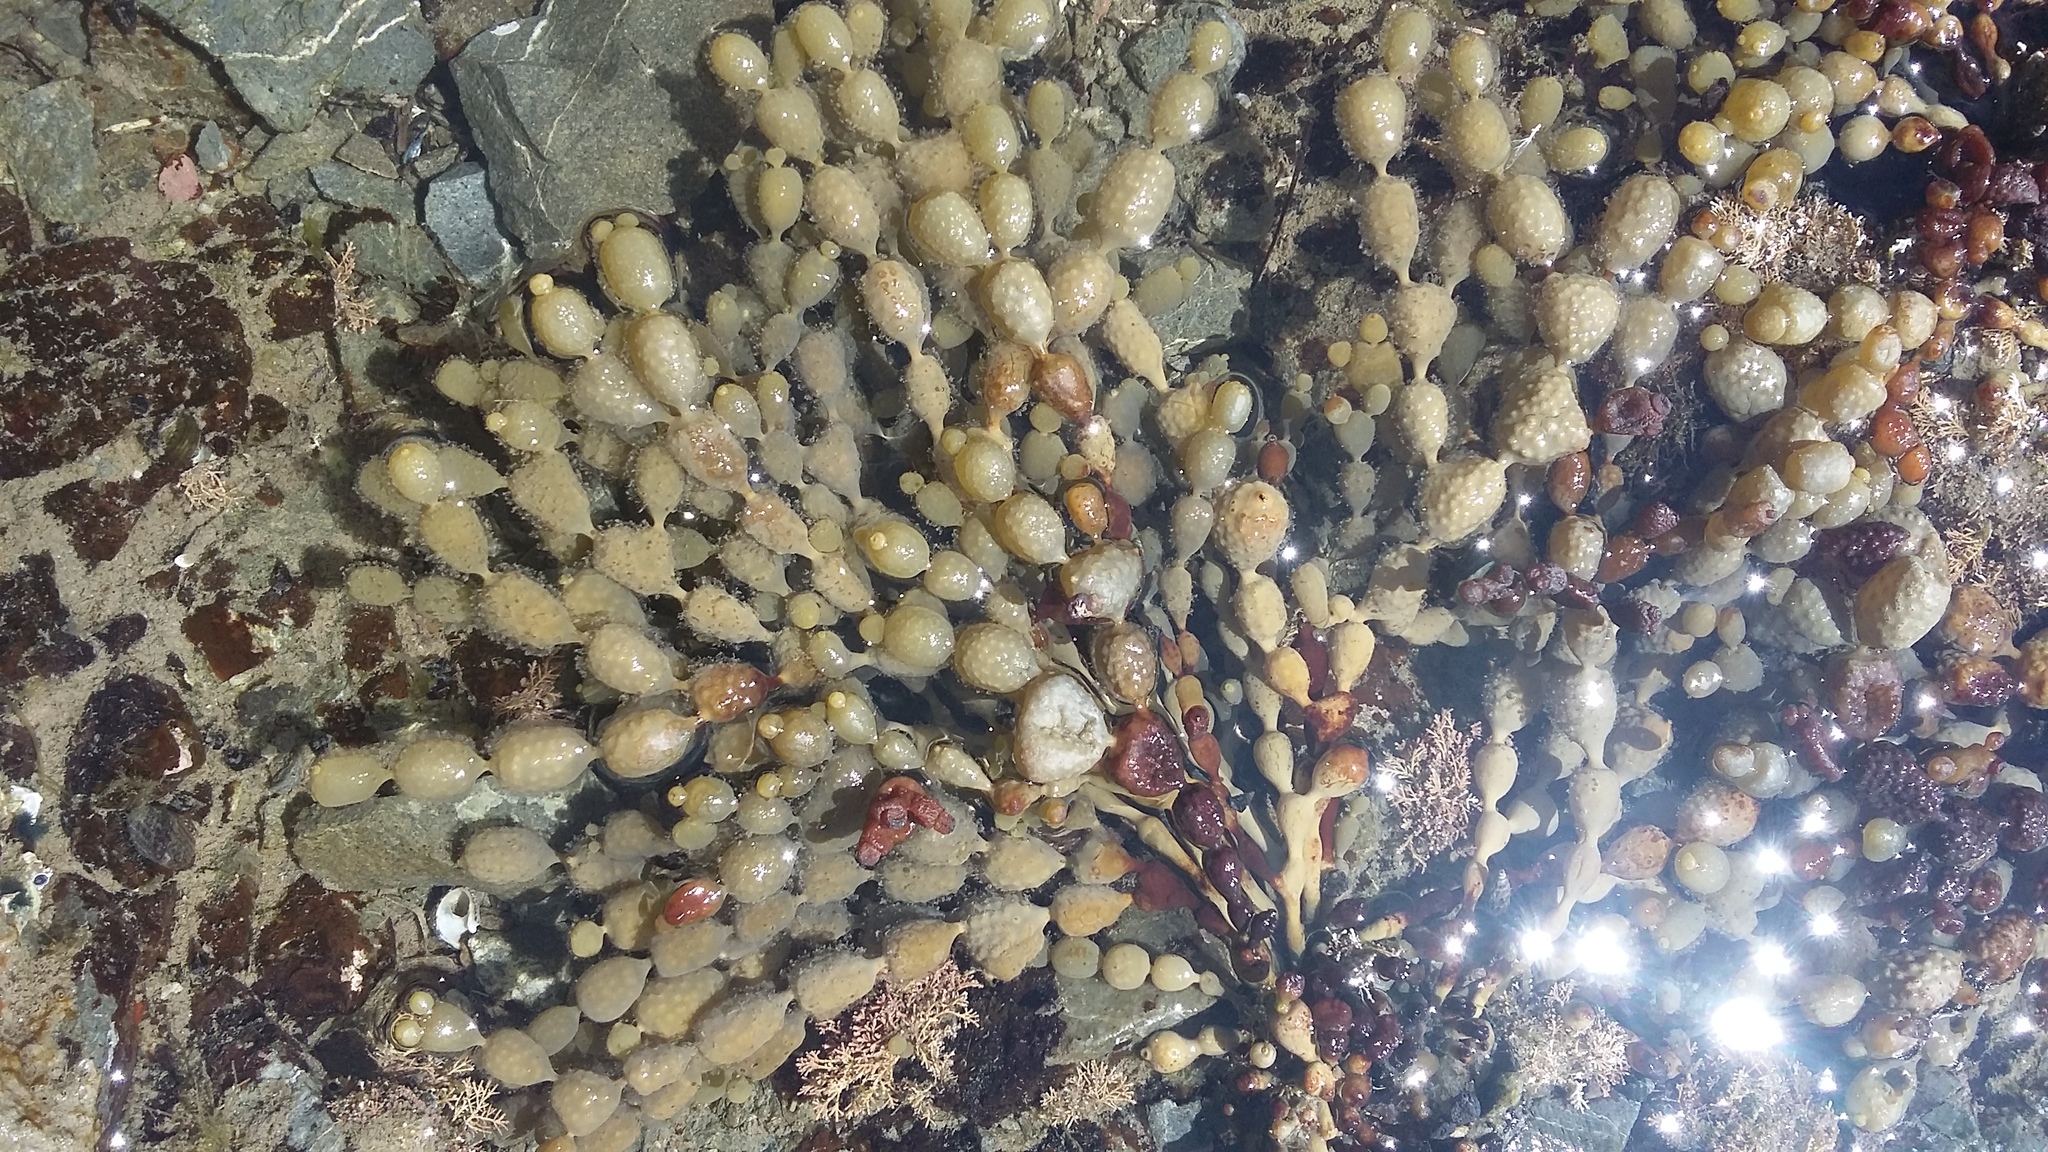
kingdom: Chromista
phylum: Ochrophyta
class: Phaeophyceae
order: Fucales
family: Hormosiraceae
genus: Hormosira
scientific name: Hormosira banksii
